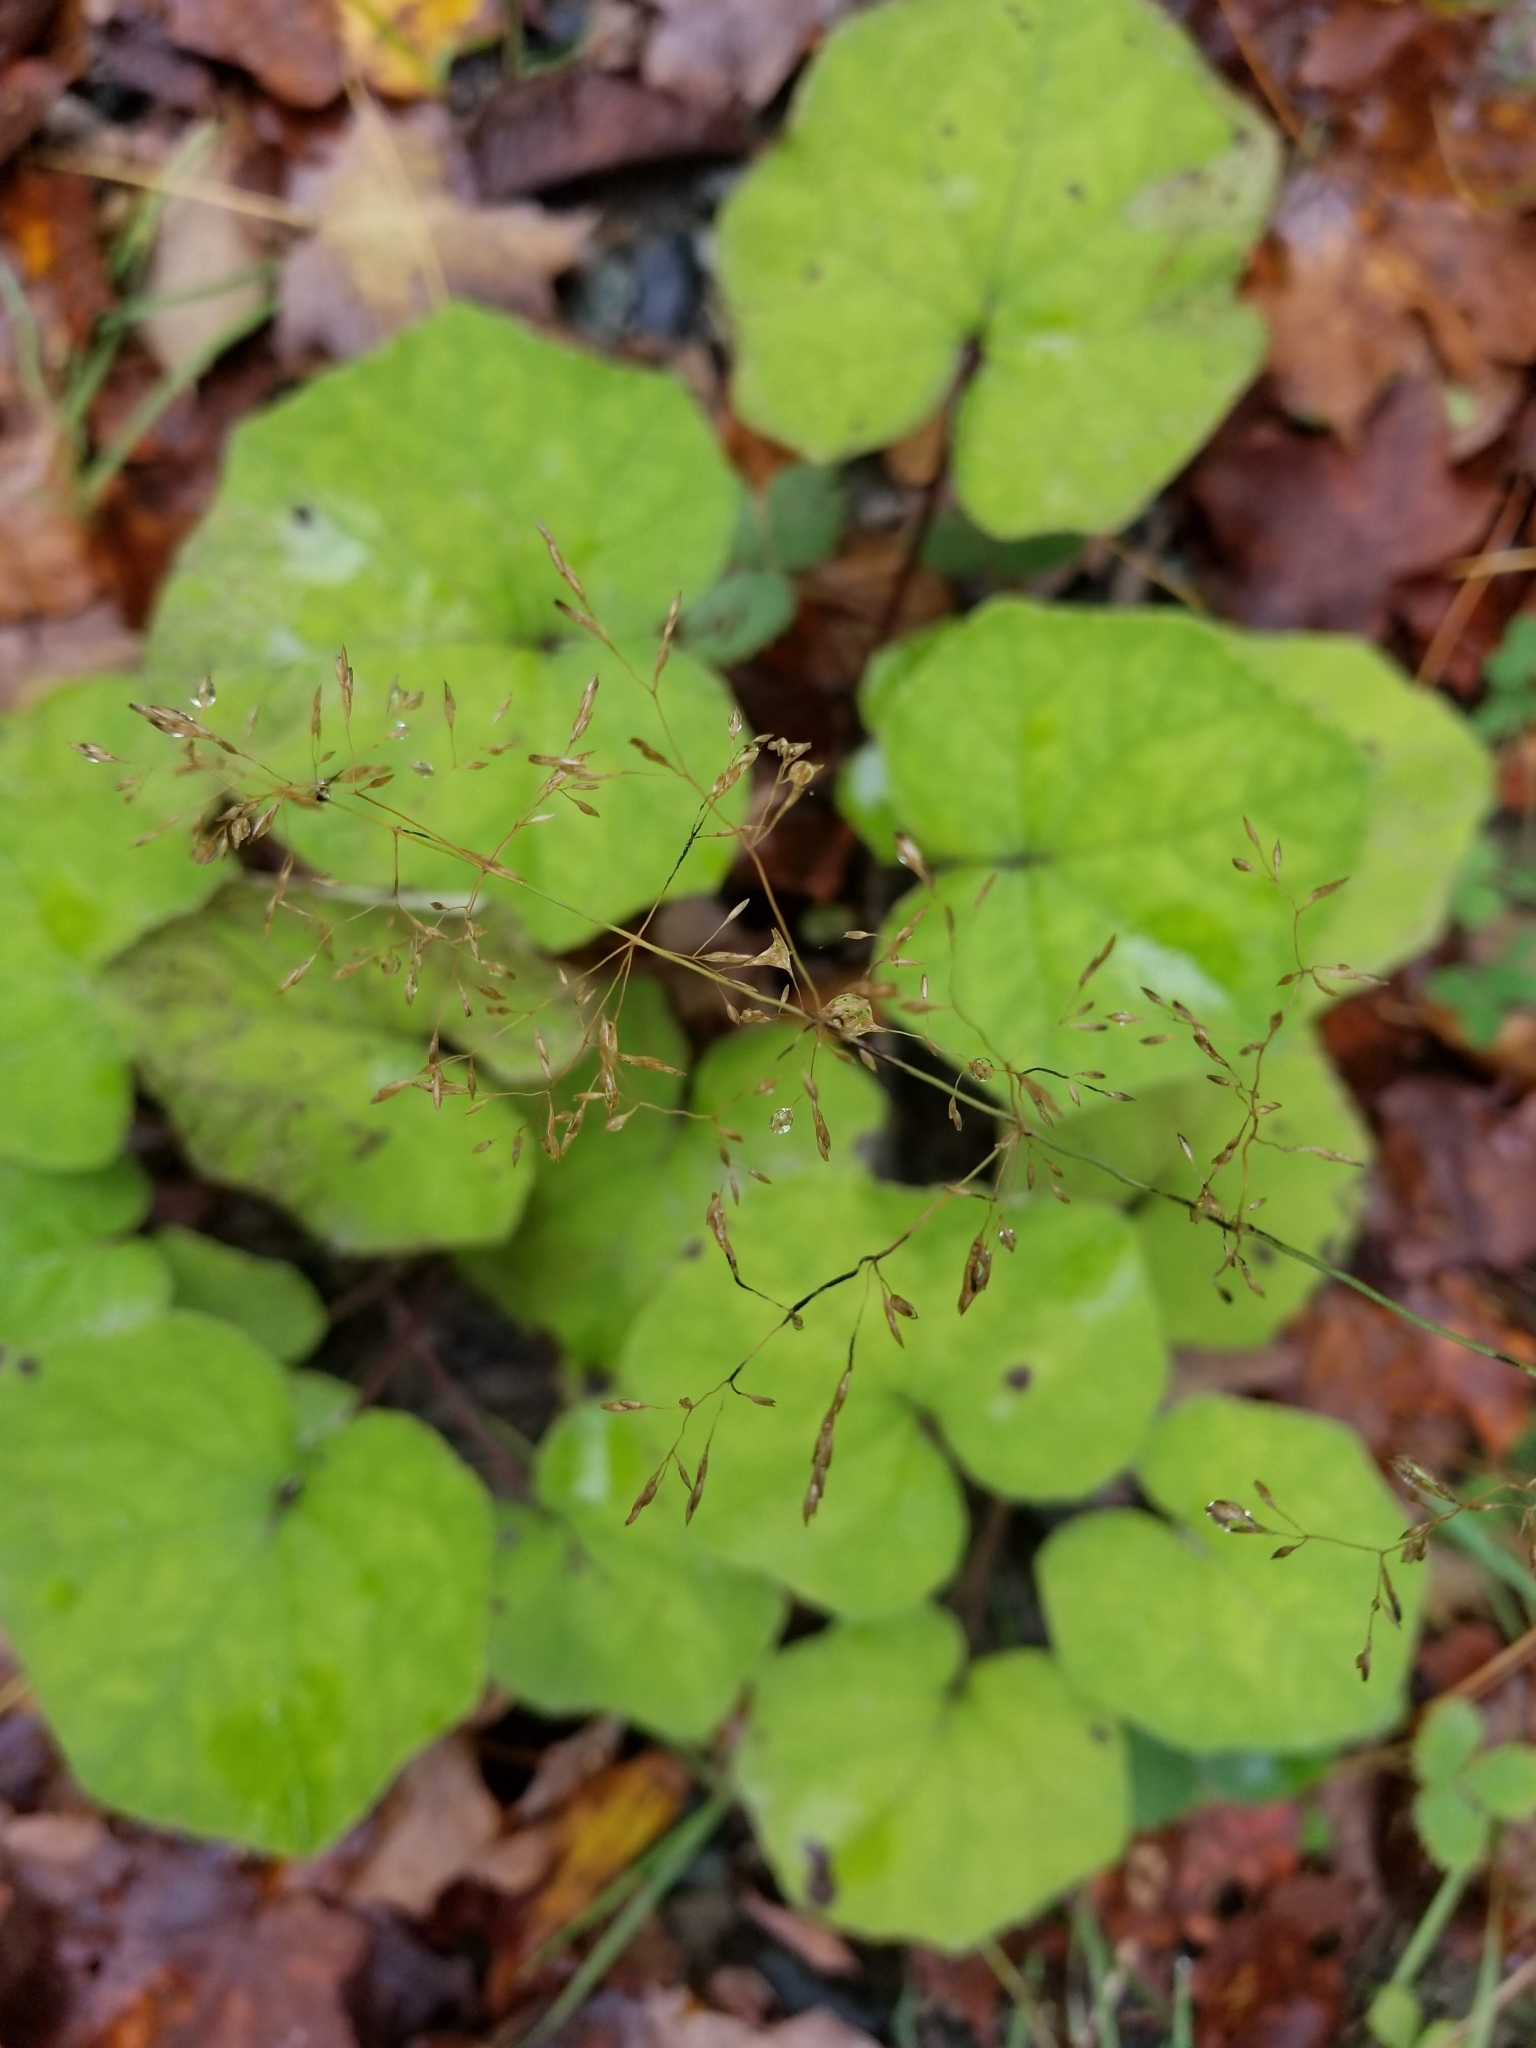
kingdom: Plantae
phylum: Tracheophyta
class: Magnoliopsida
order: Asterales
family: Asteraceae
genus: Tussilago
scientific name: Tussilago farfara
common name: Coltsfoot
